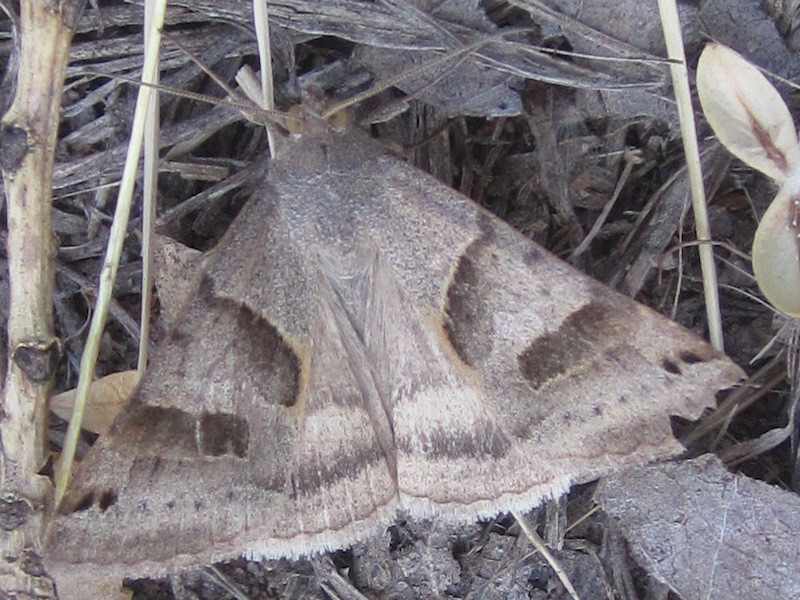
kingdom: Animalia
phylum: Arthropoda
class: Insecta
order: Lepidoptera
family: Erebidae
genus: Caenurgina
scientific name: Caenurgina erechtea
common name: Forage looper moth
